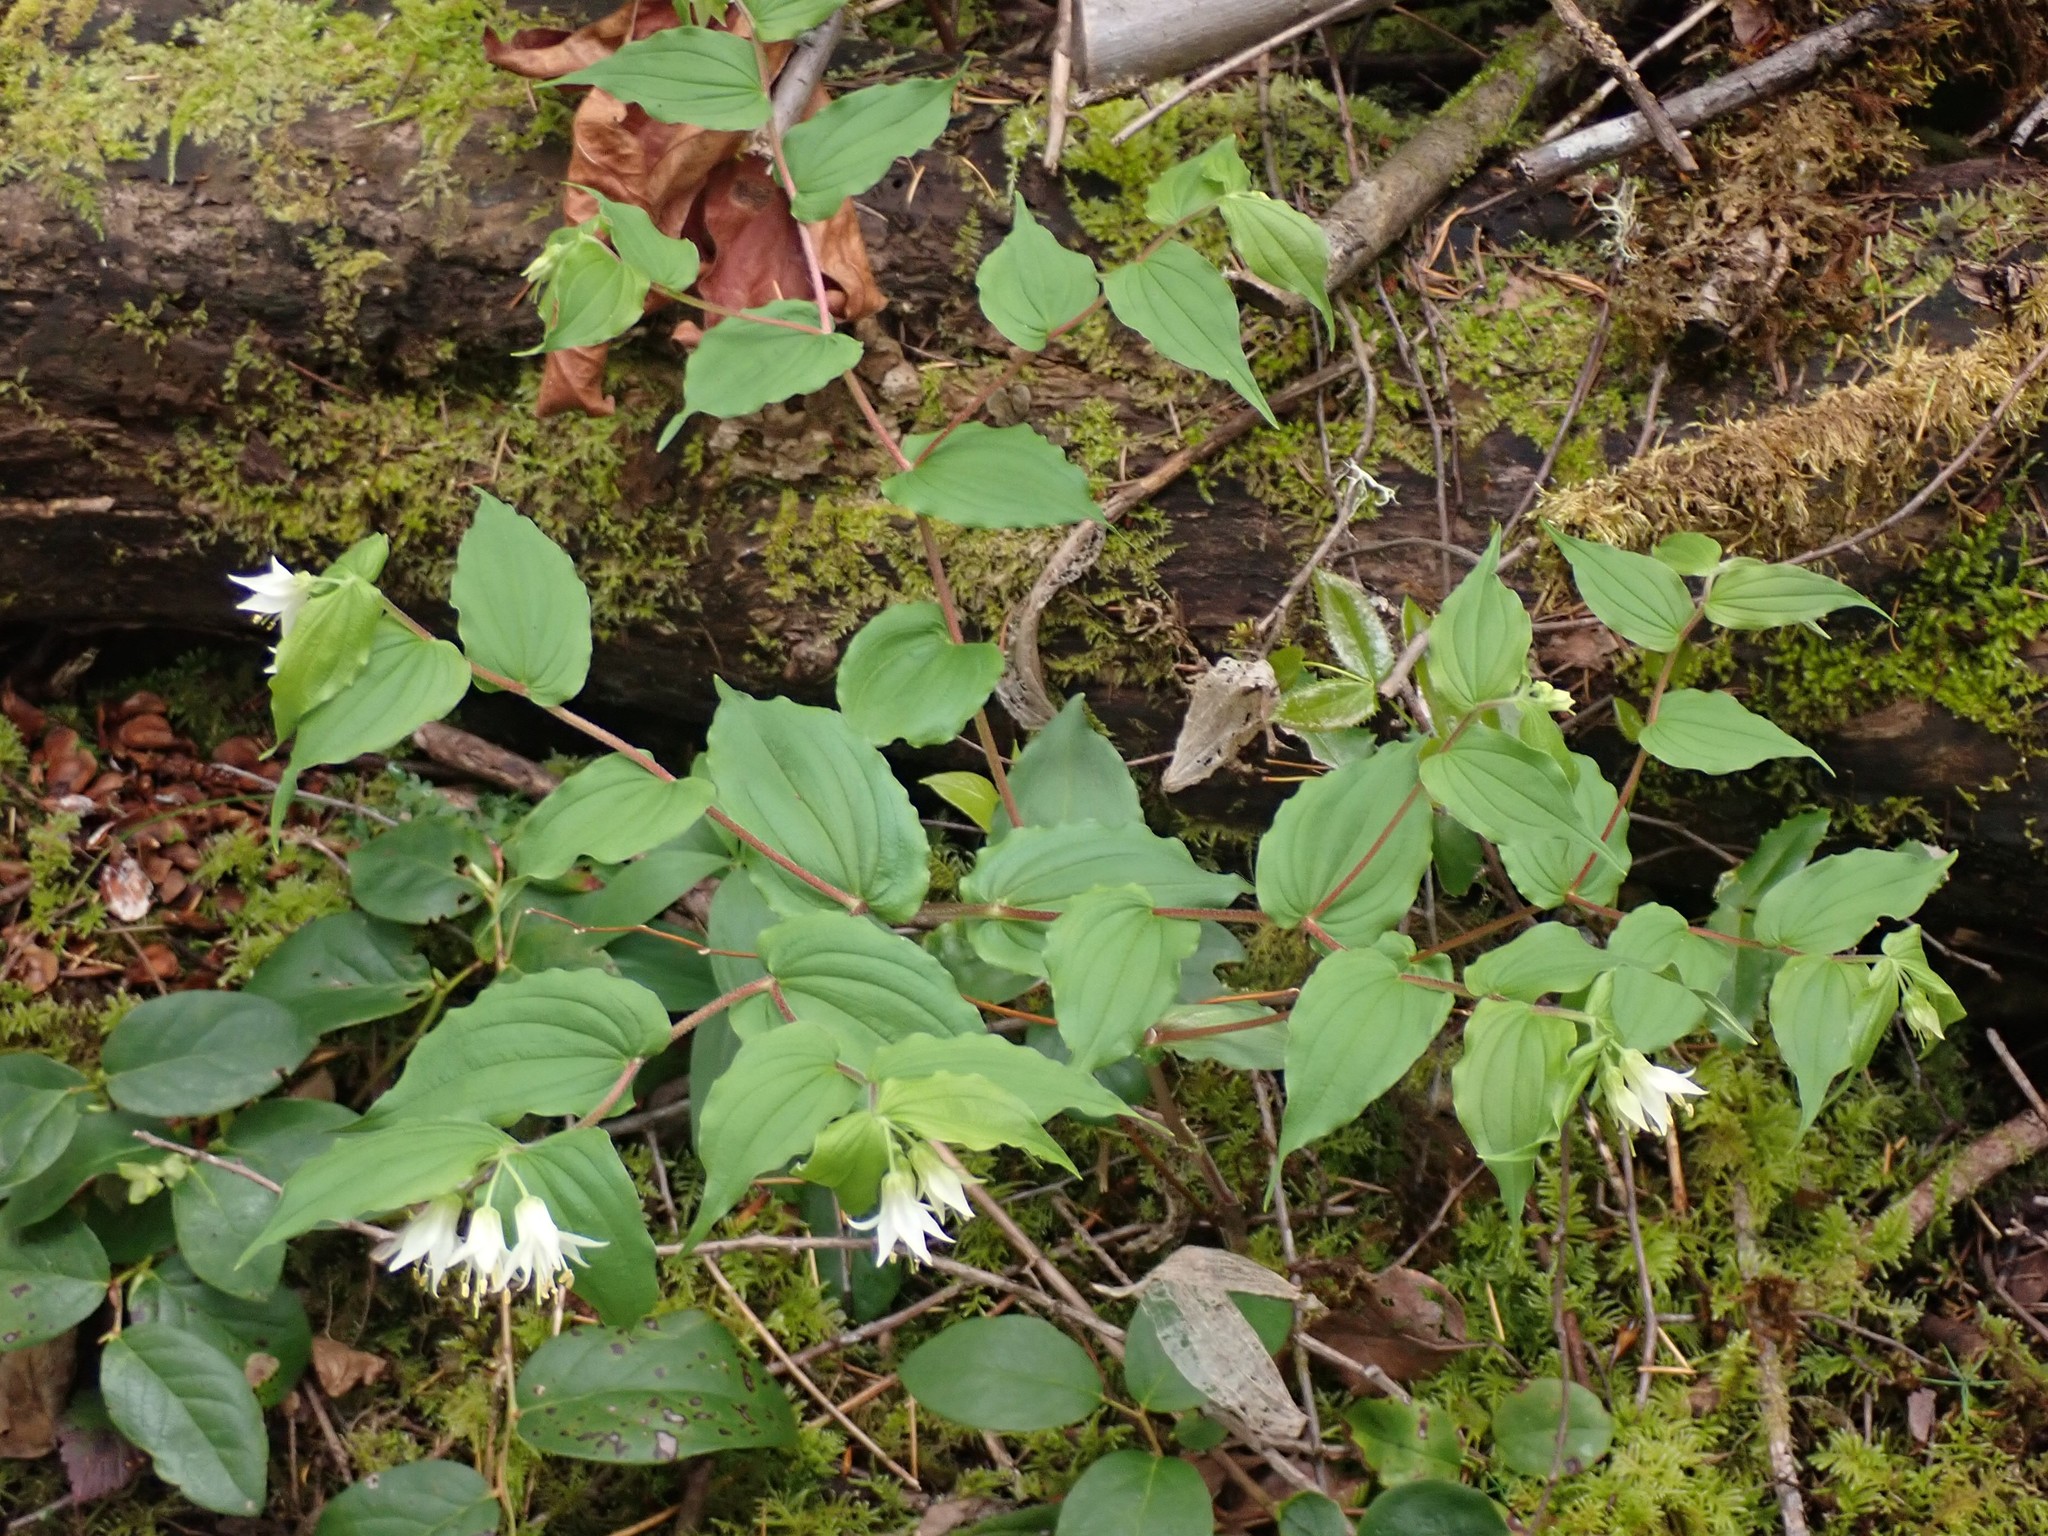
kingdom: Plantae
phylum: Tracheophyta
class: Liliopsida
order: Liliales
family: Liliaceae
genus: Prosartes
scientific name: Prosartes hookeri
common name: Fairy-bells
